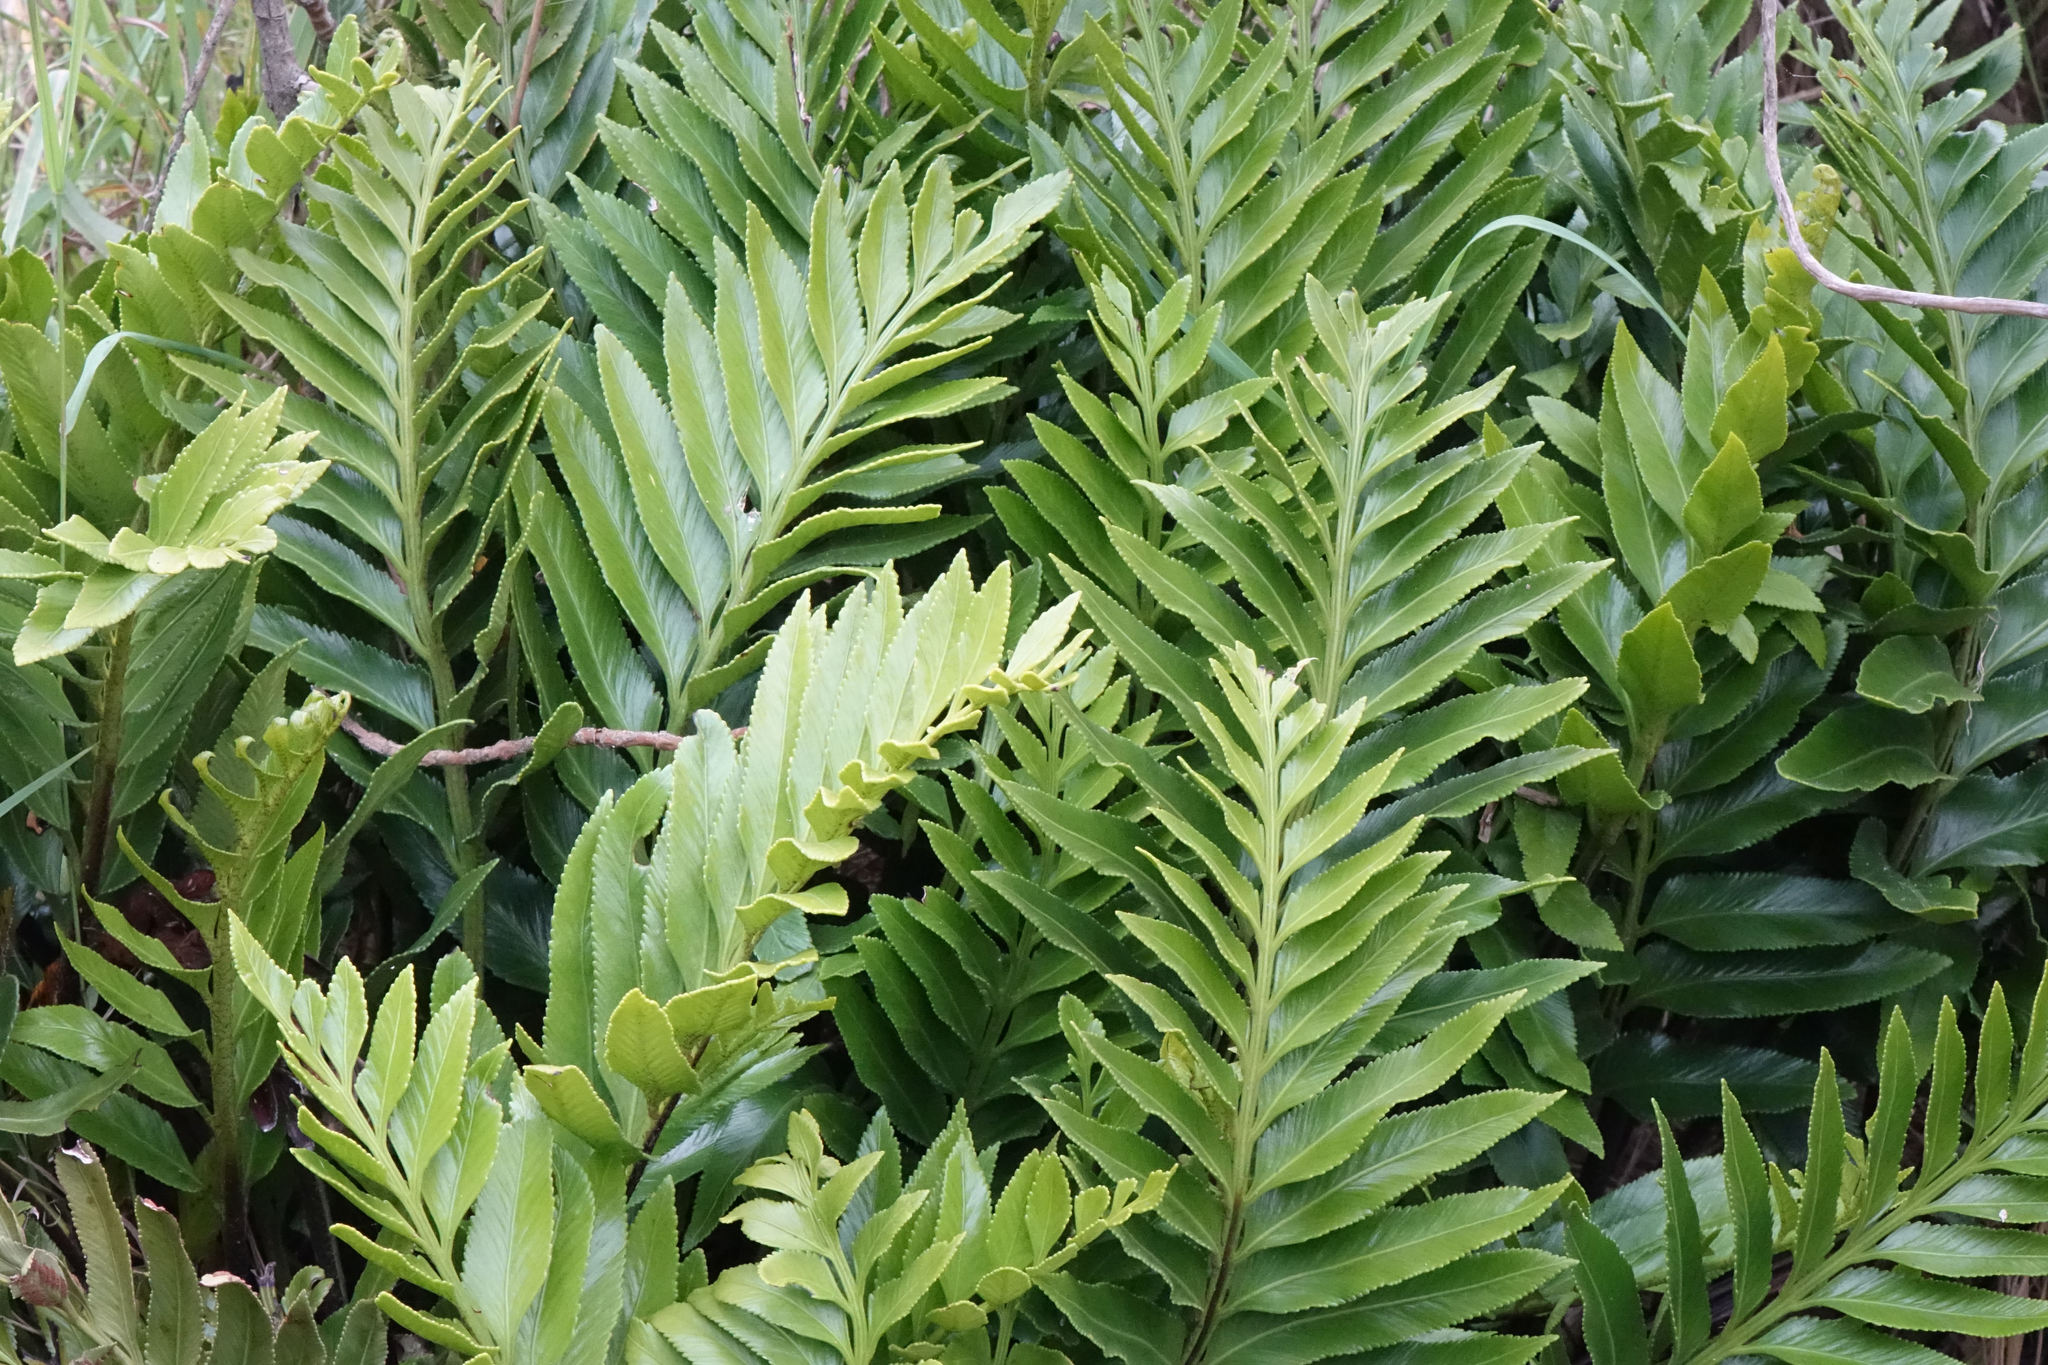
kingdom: Plantae
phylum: Tracheophyta
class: Polypodiopsida
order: Polypodiales
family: Aspleniaceae
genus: Asplenium
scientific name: Asplenium obtusatum
